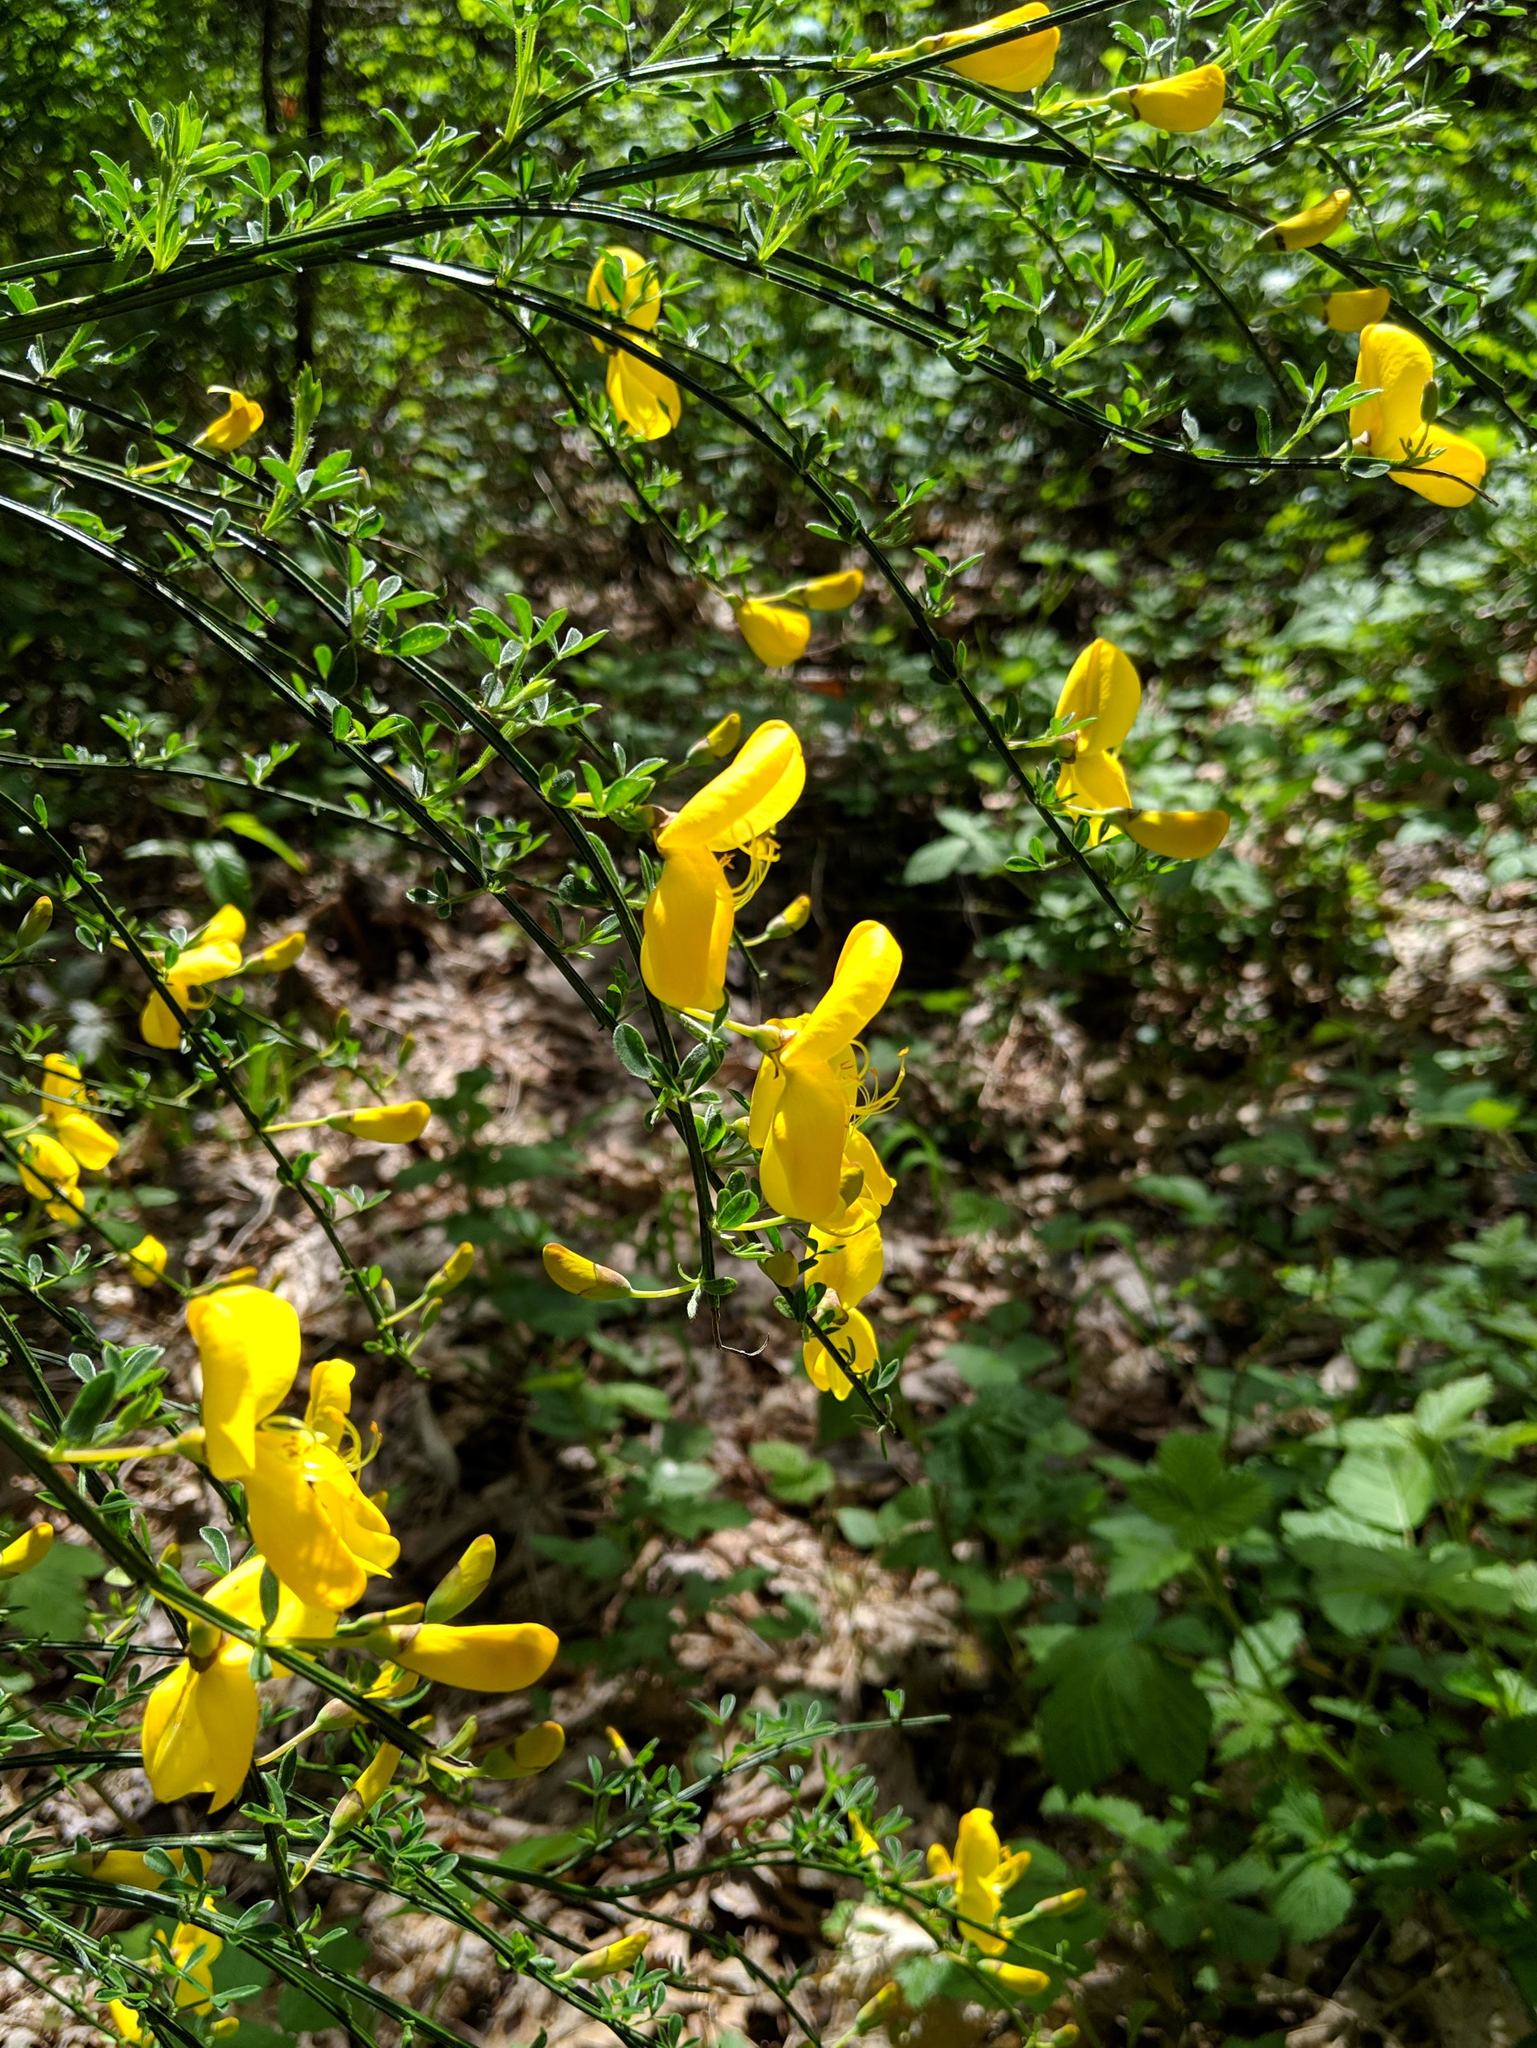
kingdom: Plantae
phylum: Tracheophyta
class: Magnoliopsida
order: Fabales
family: Fabaceae
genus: Cytisus
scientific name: Cytisus scoparius
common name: Scotch broom
